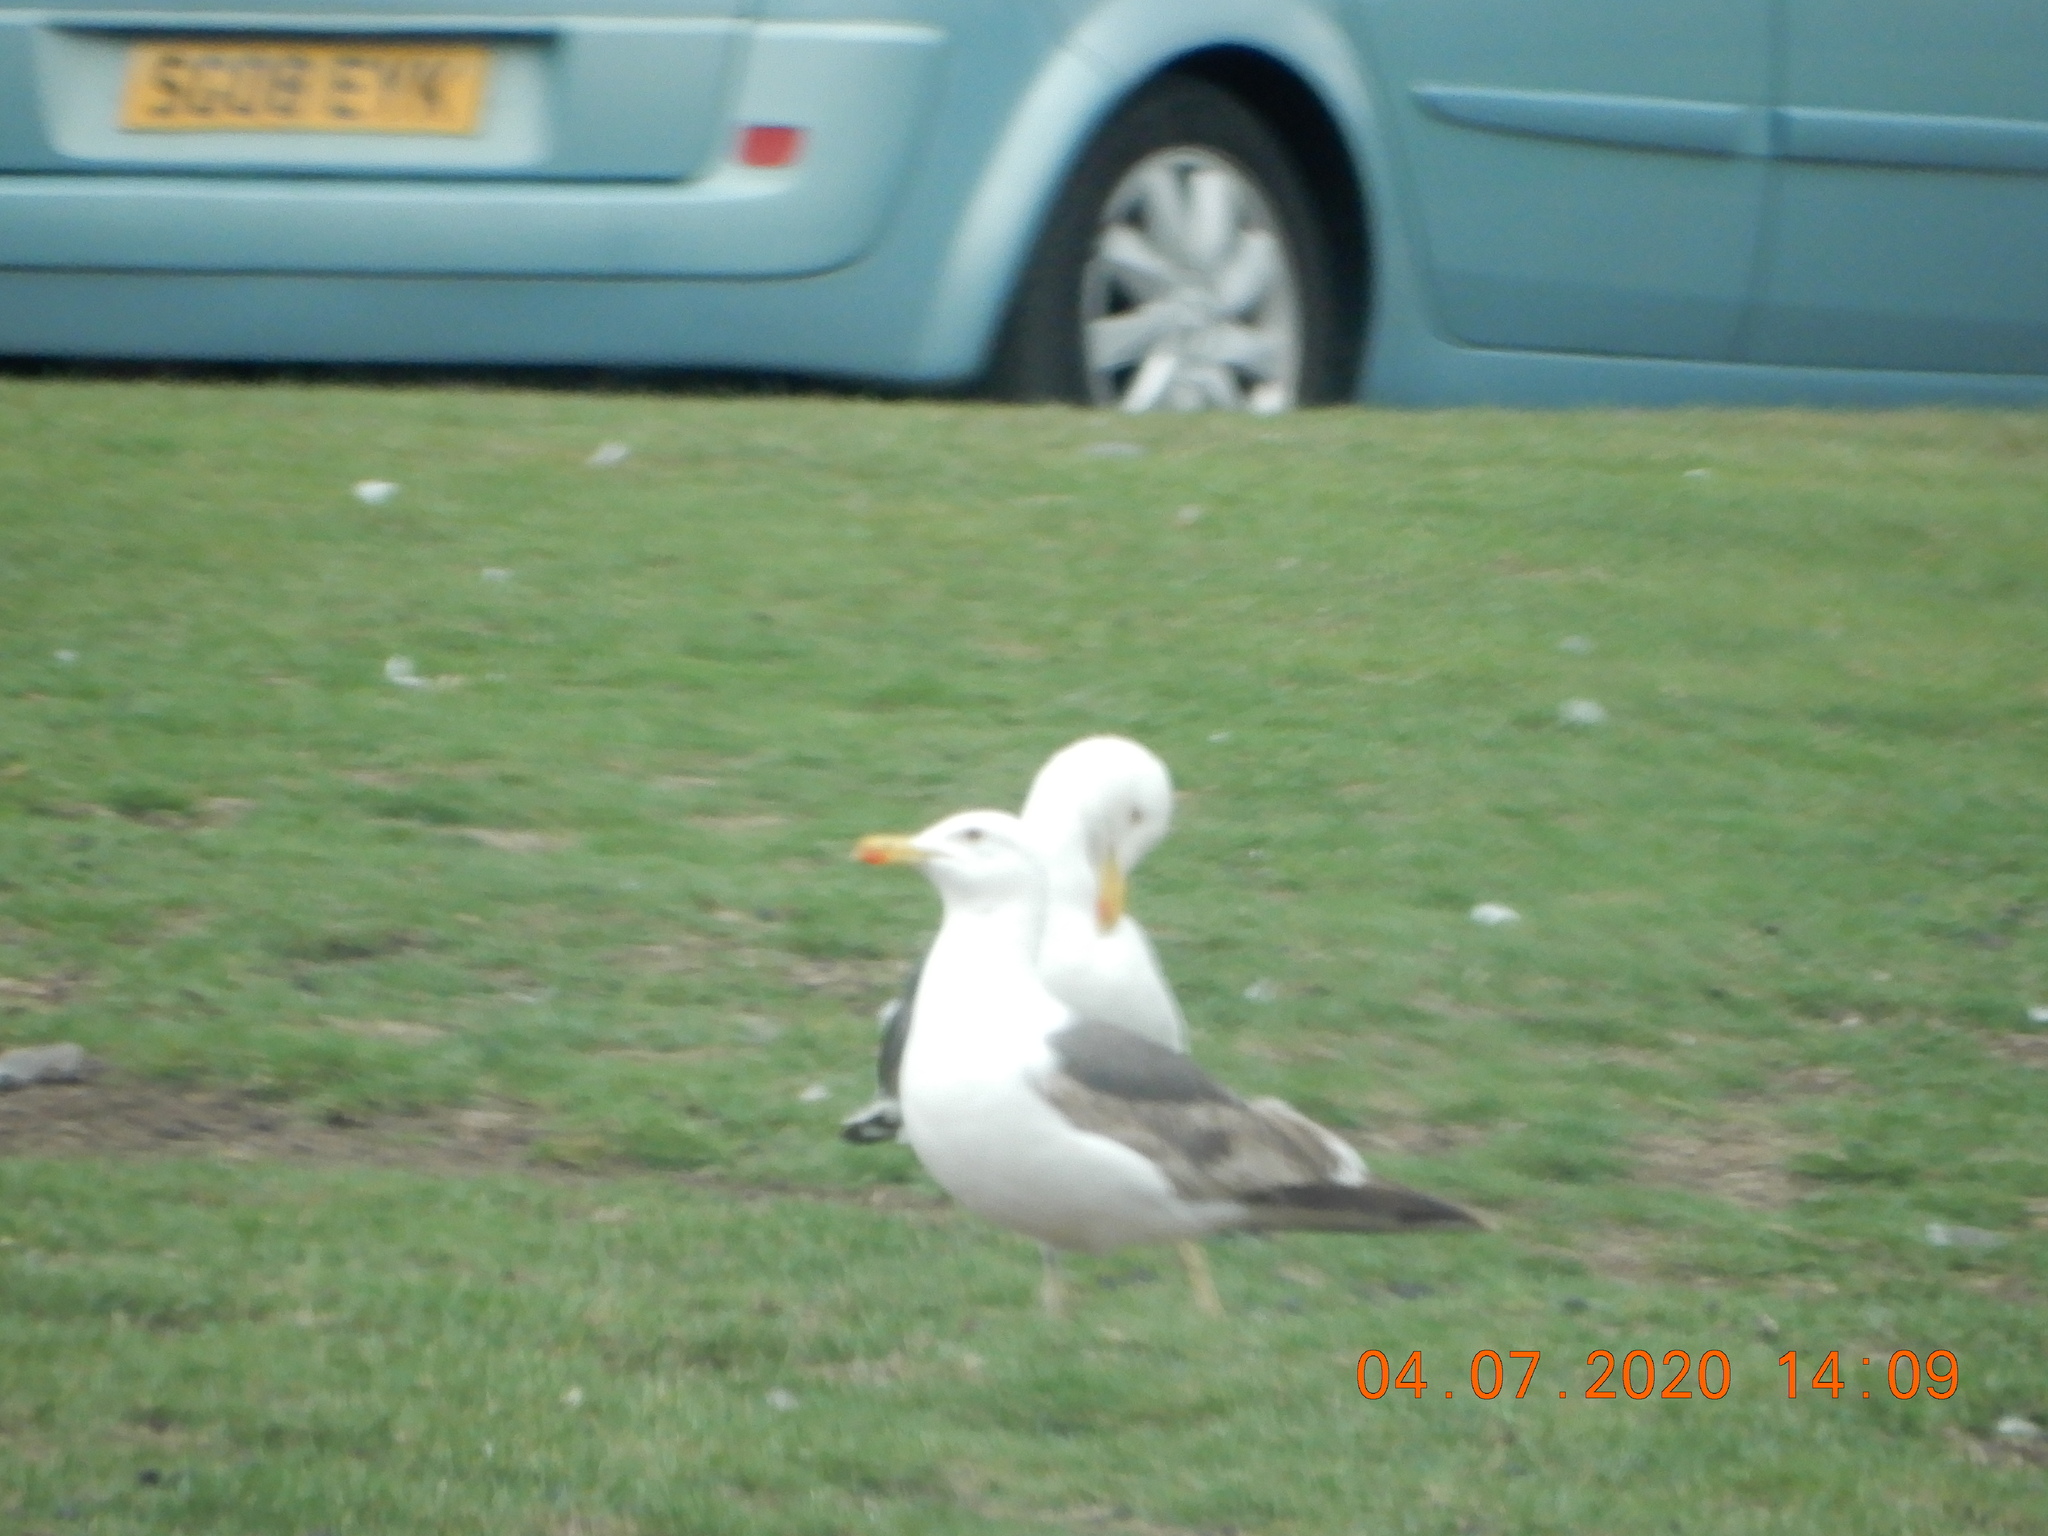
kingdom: Animalia
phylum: Chordata
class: Aves
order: Charadriiformes
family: Laridae
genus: Larus
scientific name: Larus argentatus
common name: Herring gull
